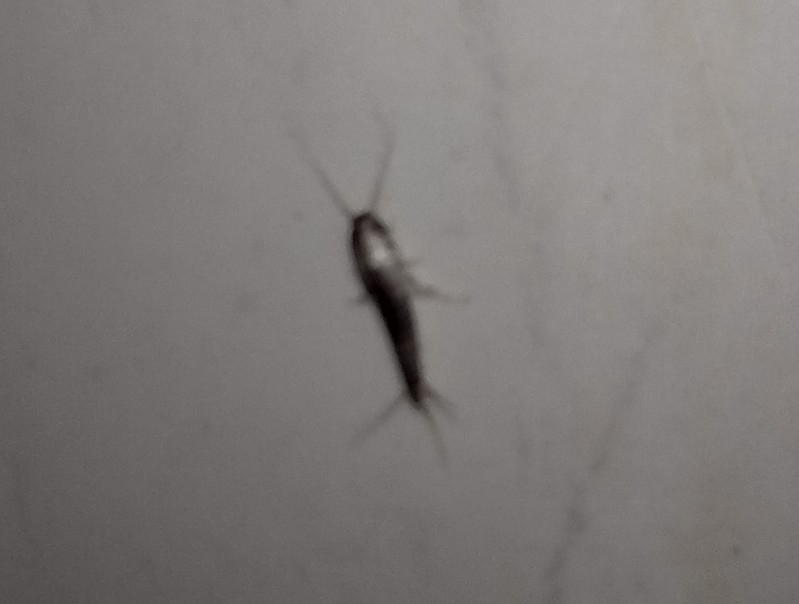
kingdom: Animalia
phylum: Arthropoda
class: Insecta
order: Zygentoma
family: Lepismatidae
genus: Lepisma
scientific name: Lepisma saccharinum
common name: Silverfish
